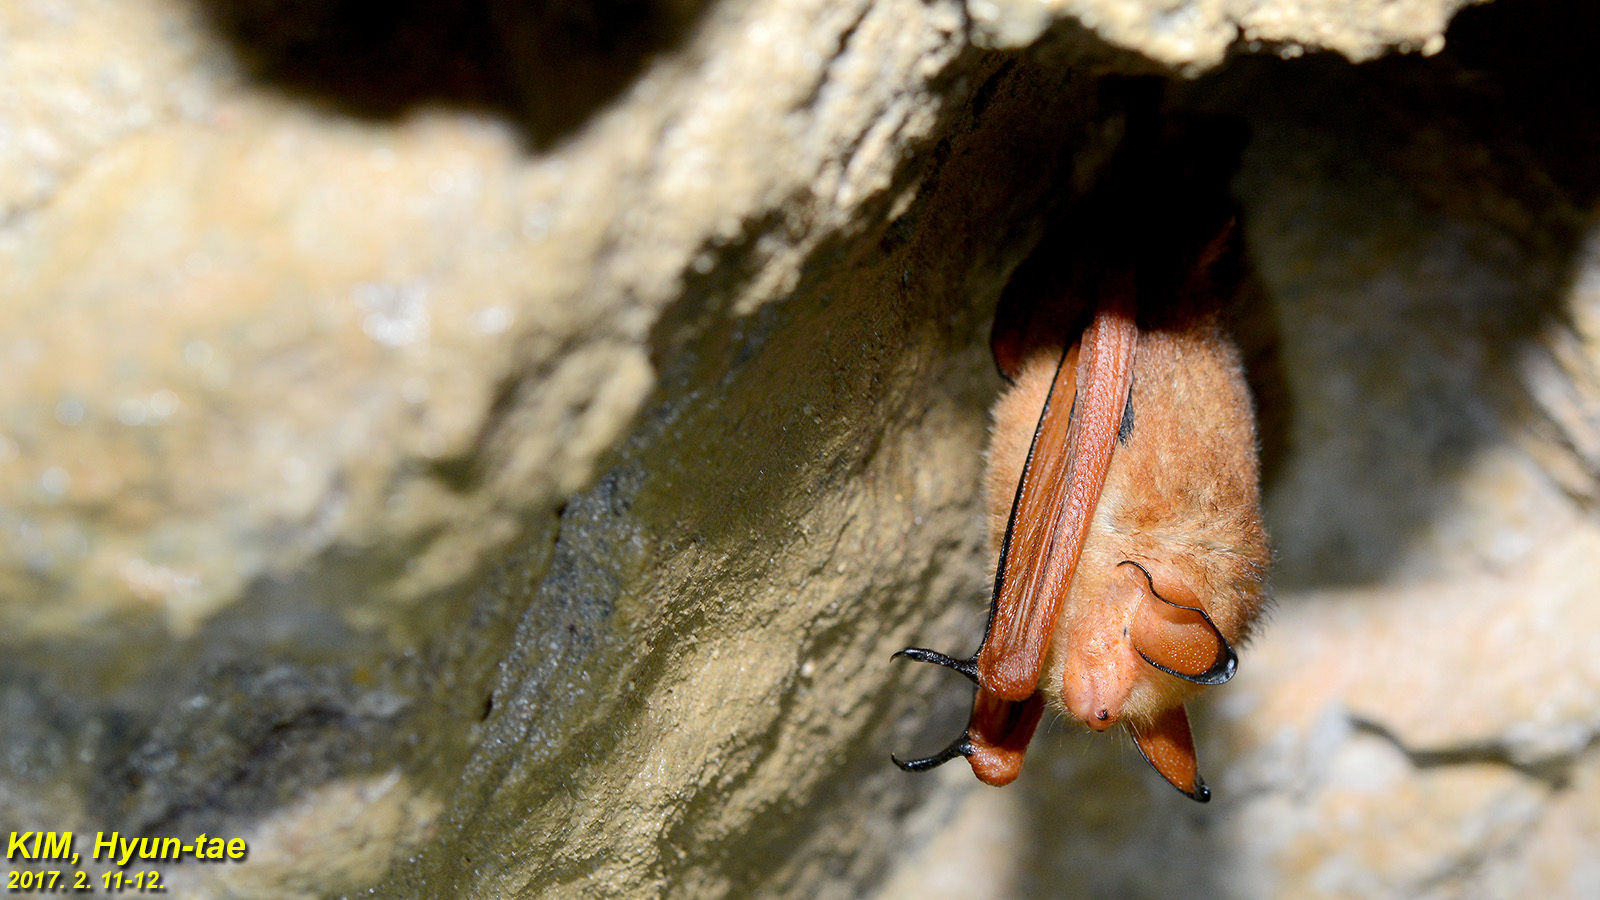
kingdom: Animalia
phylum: Chordata
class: Mammalia
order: Chiroptera
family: Vespertilionidae
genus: Myotis
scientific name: Myotis rufoniger
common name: Black-winged myotis
